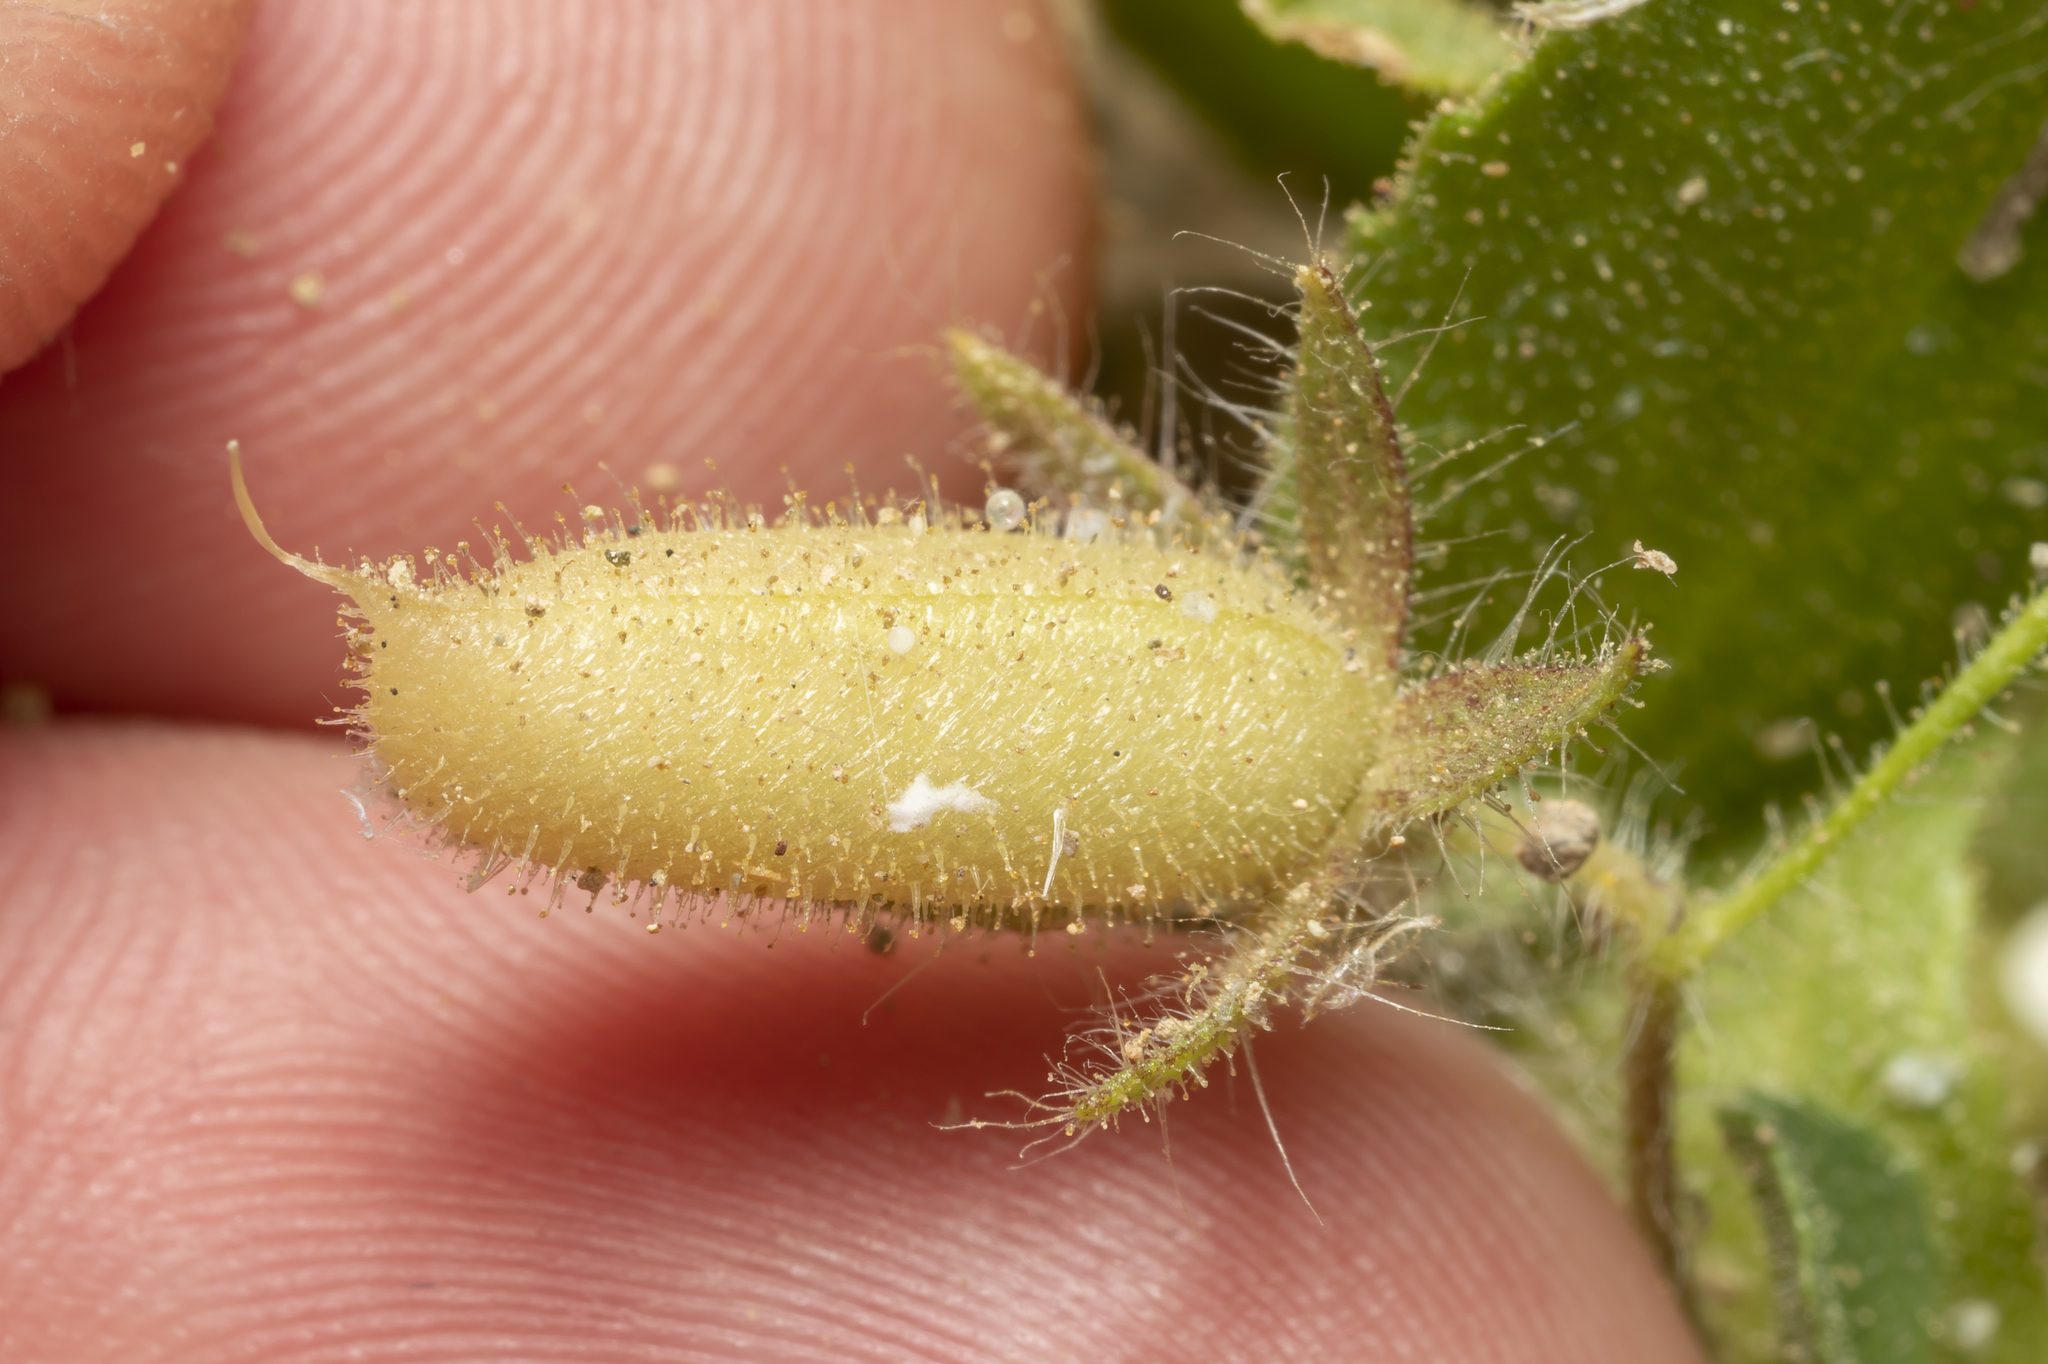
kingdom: Plantae
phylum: Tracheophyta
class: Magnoliopsida
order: Fabales
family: Fabaceae
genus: Ononis
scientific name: Ononis viscosa
